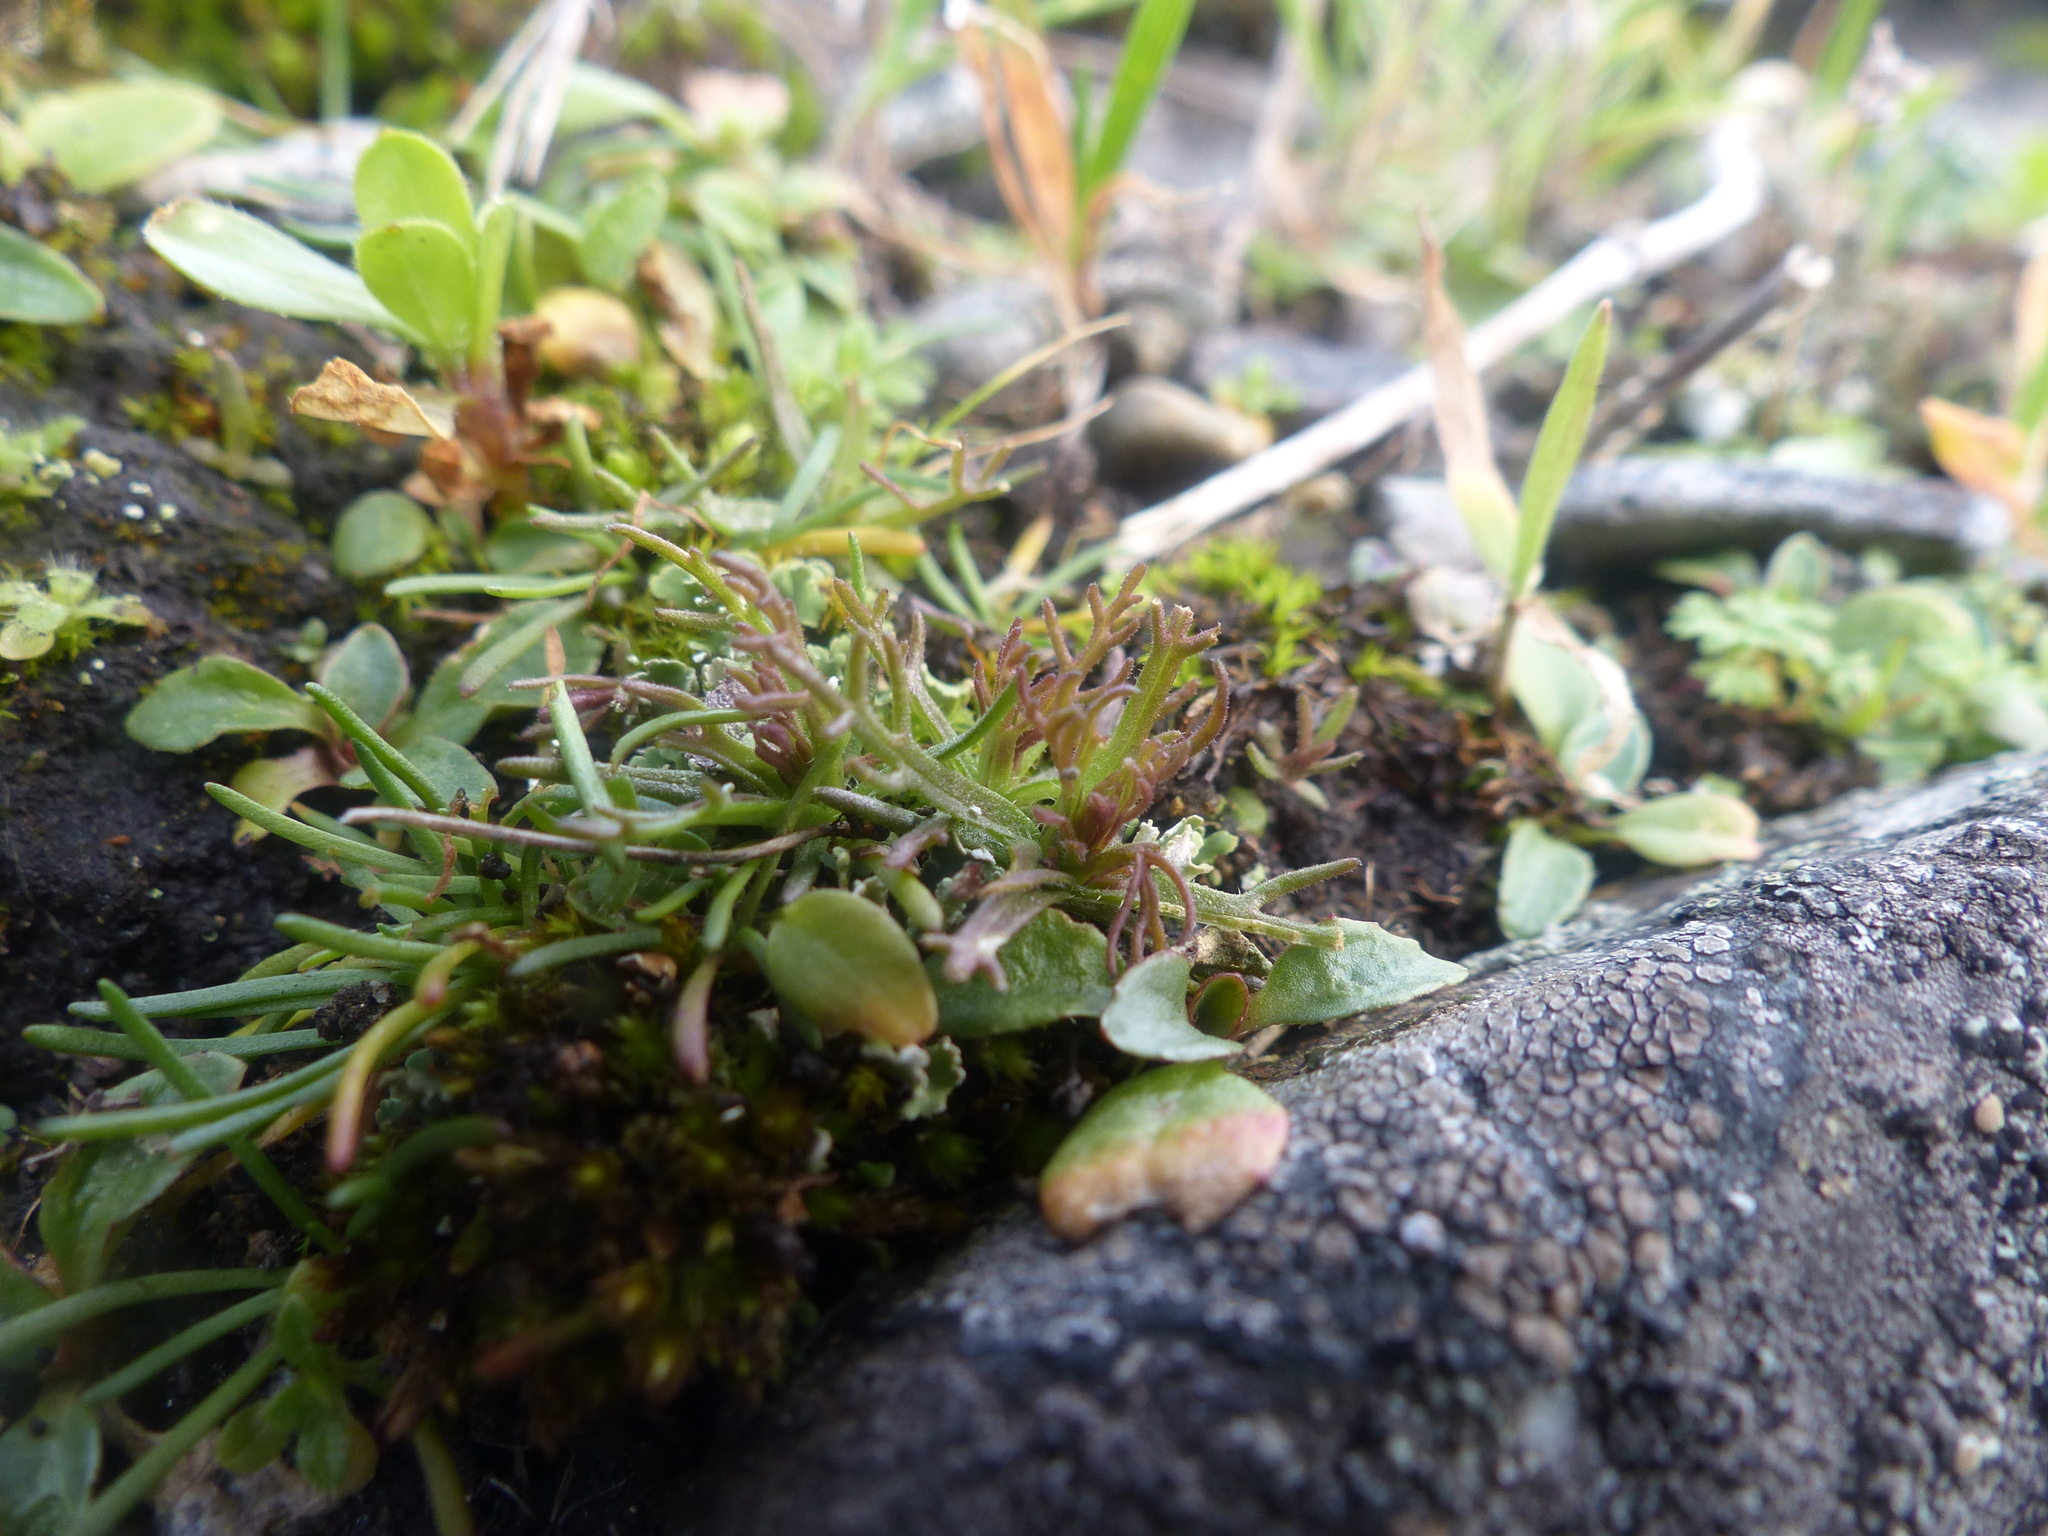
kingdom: Plantae
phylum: Tracheophyta
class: Magnoliopsida
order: Lamiales
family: Orobanchaceae
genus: Triphysaria
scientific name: Triphysaria pusilla
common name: Dwarf false owl-clover
